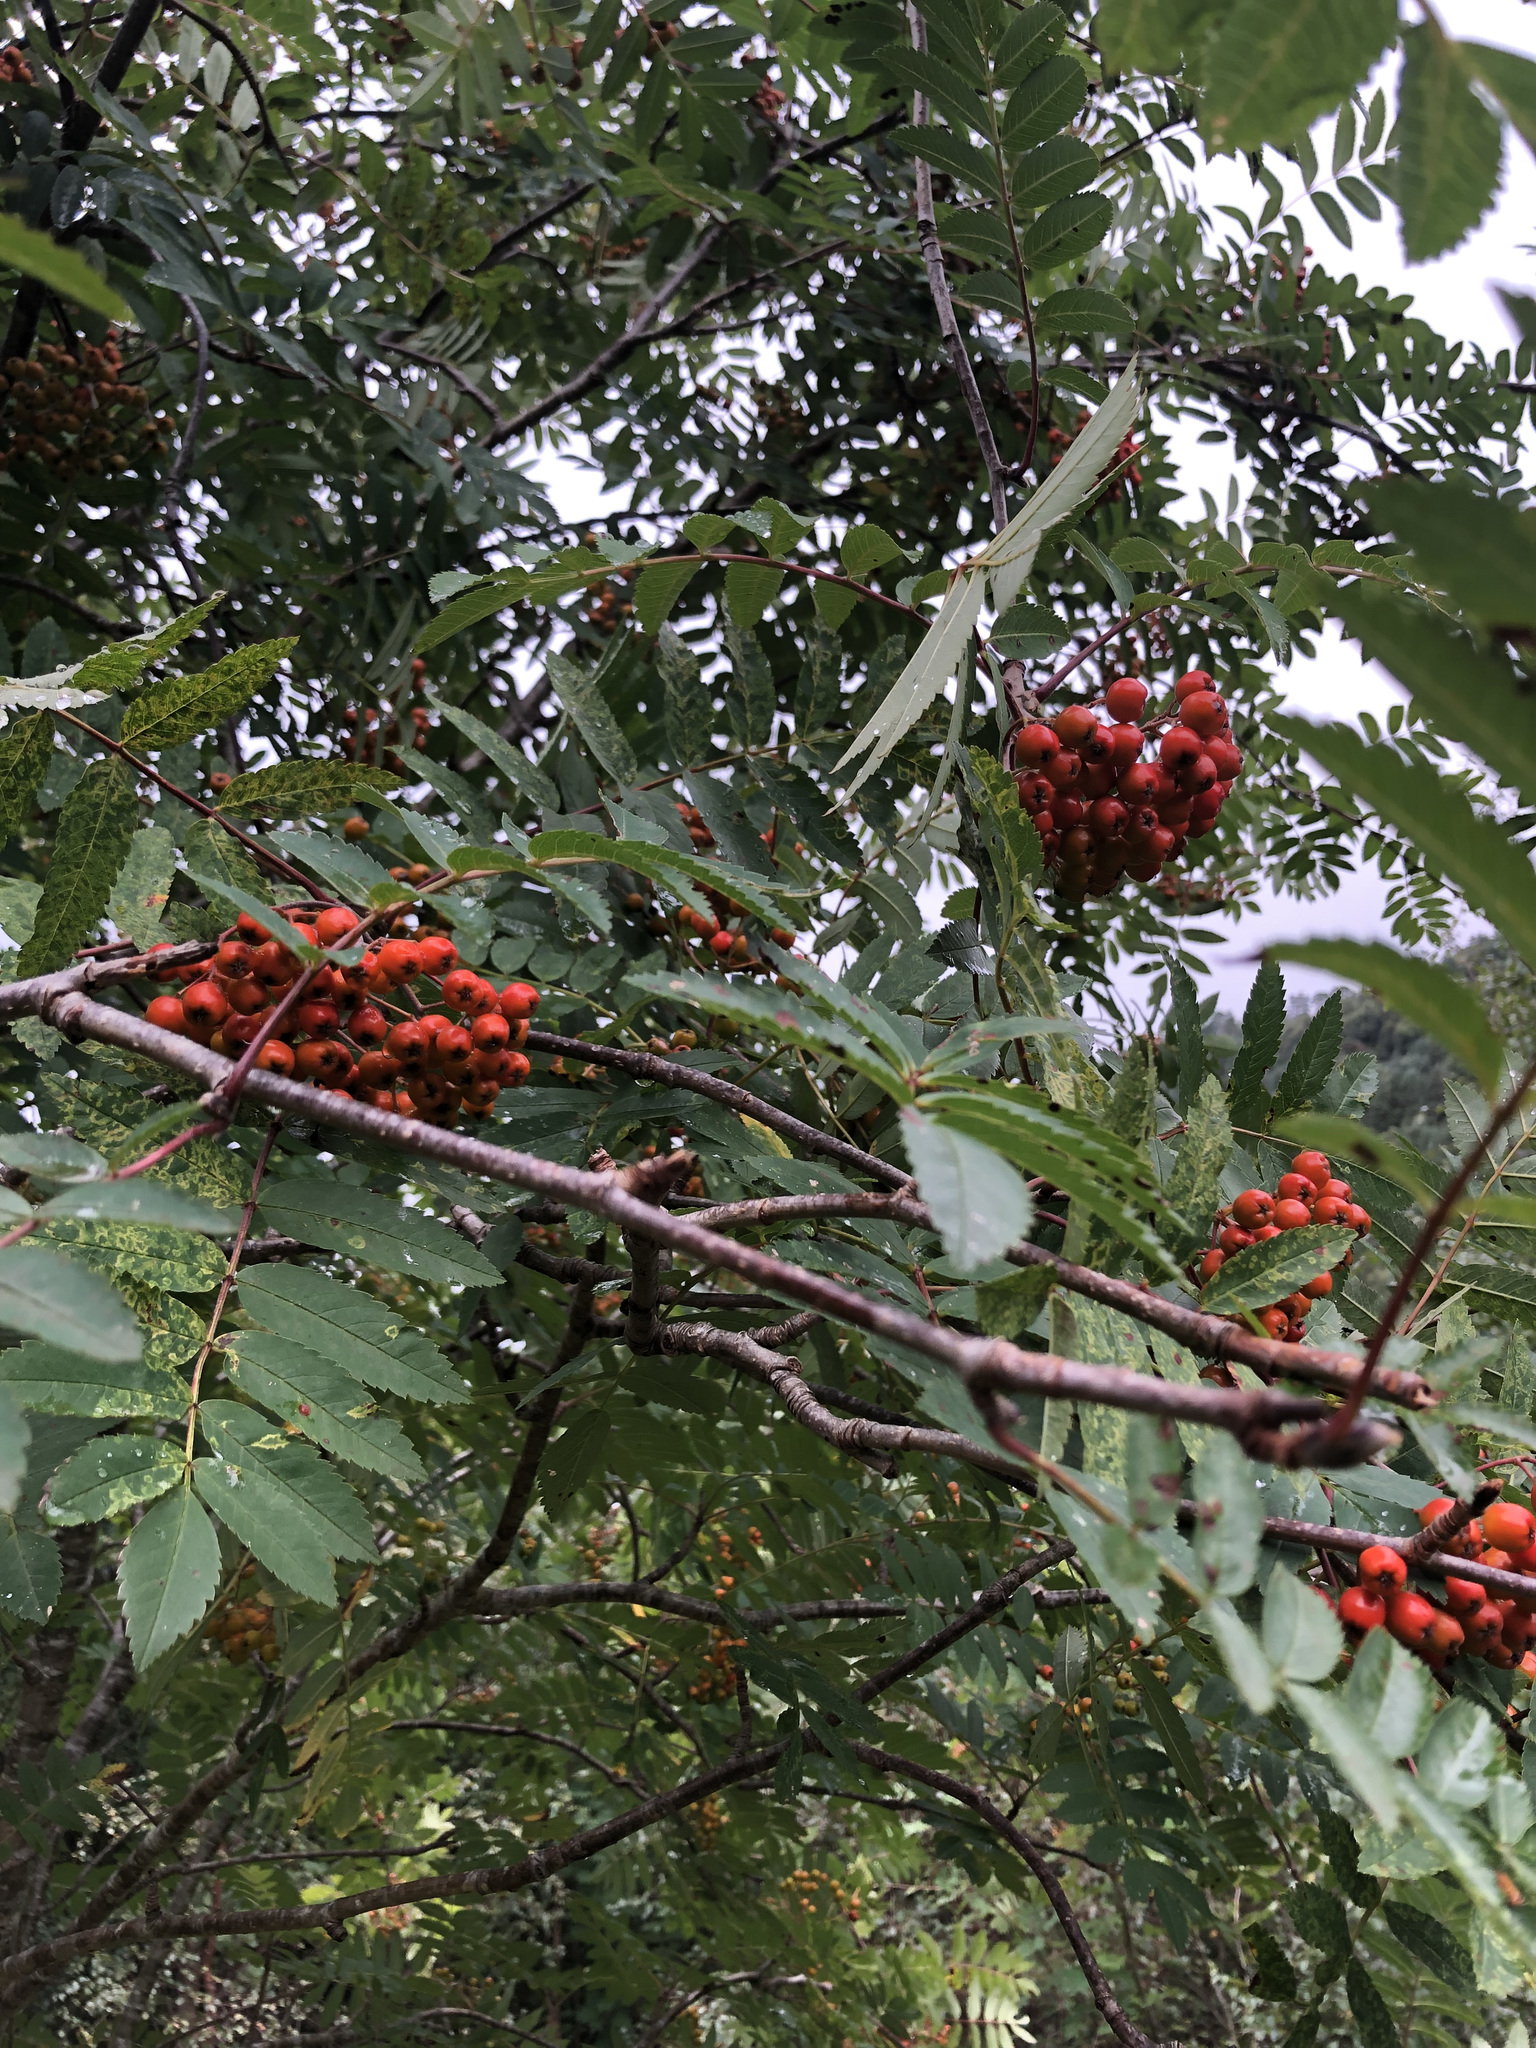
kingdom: Plantae
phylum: Tracheophyta
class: Magnoliopsida
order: Rosales
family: Rosaceae
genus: Sorbus
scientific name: Sorbus aucuparia
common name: Rowan
